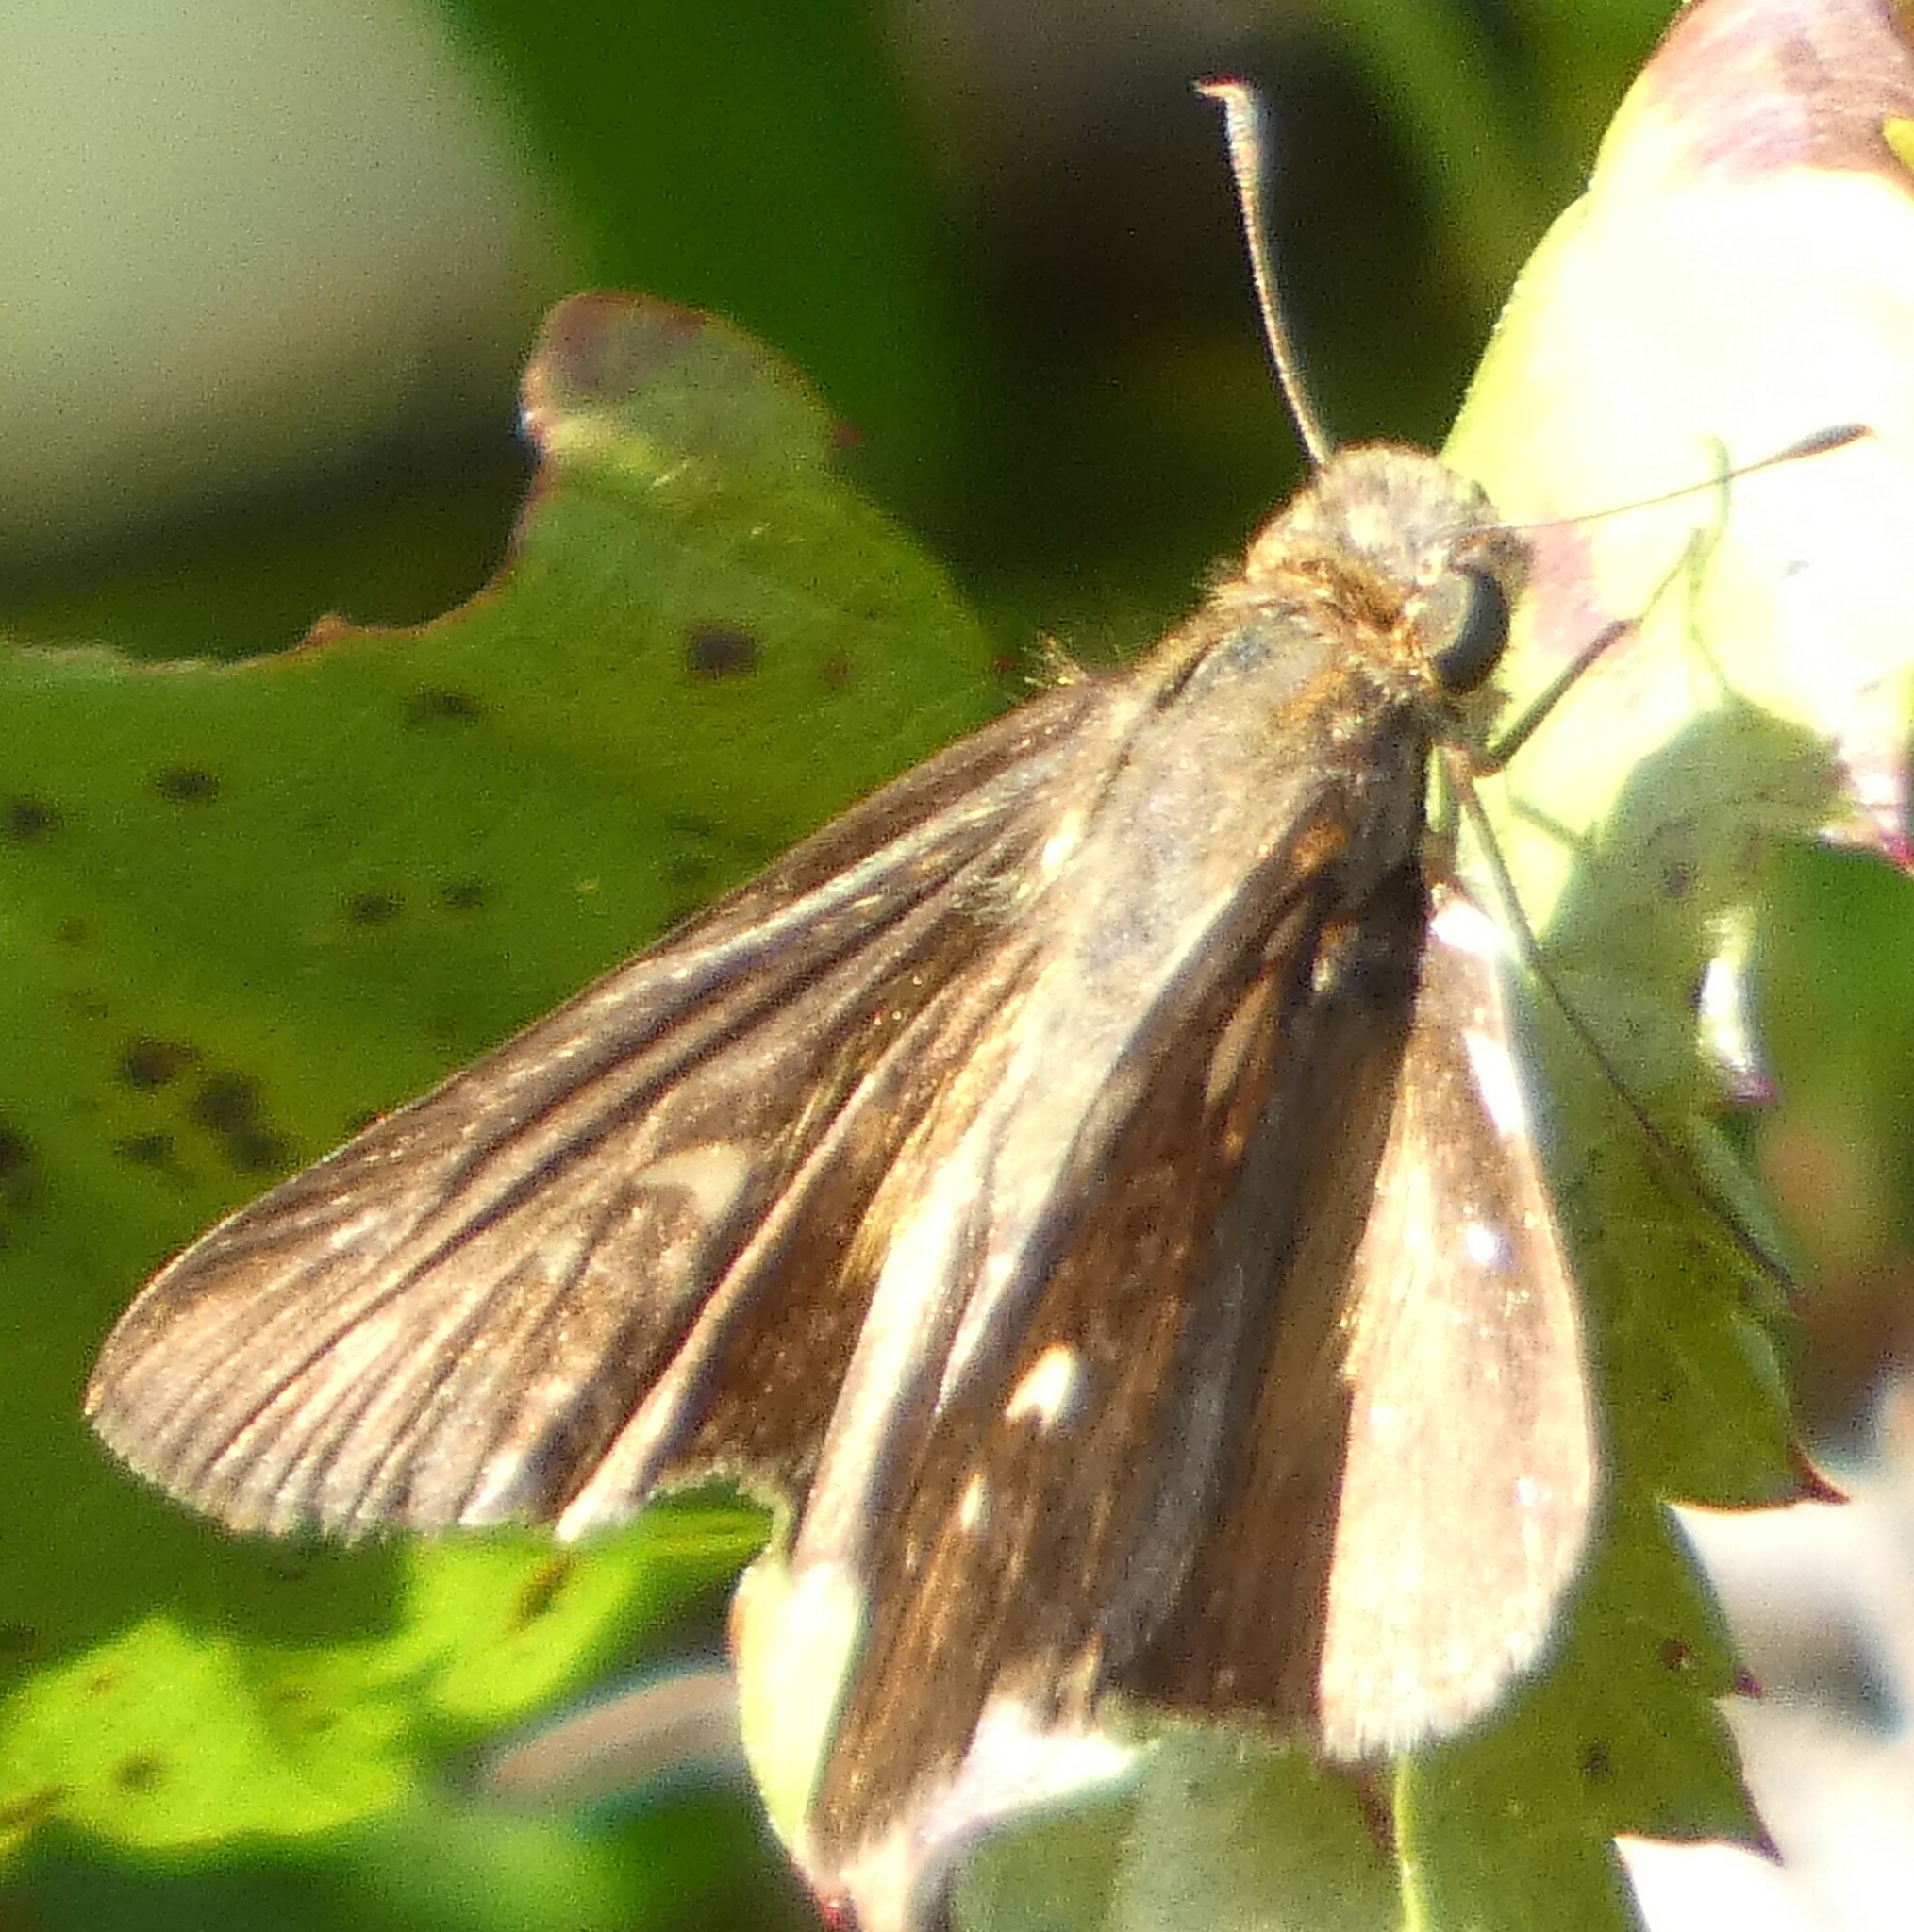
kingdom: Animalia
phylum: Arthropoda
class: Insecta
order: Lepidoptera
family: Hesperiidae
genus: Panoquina
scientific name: Panoquina ocola
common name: Ocola skipper
